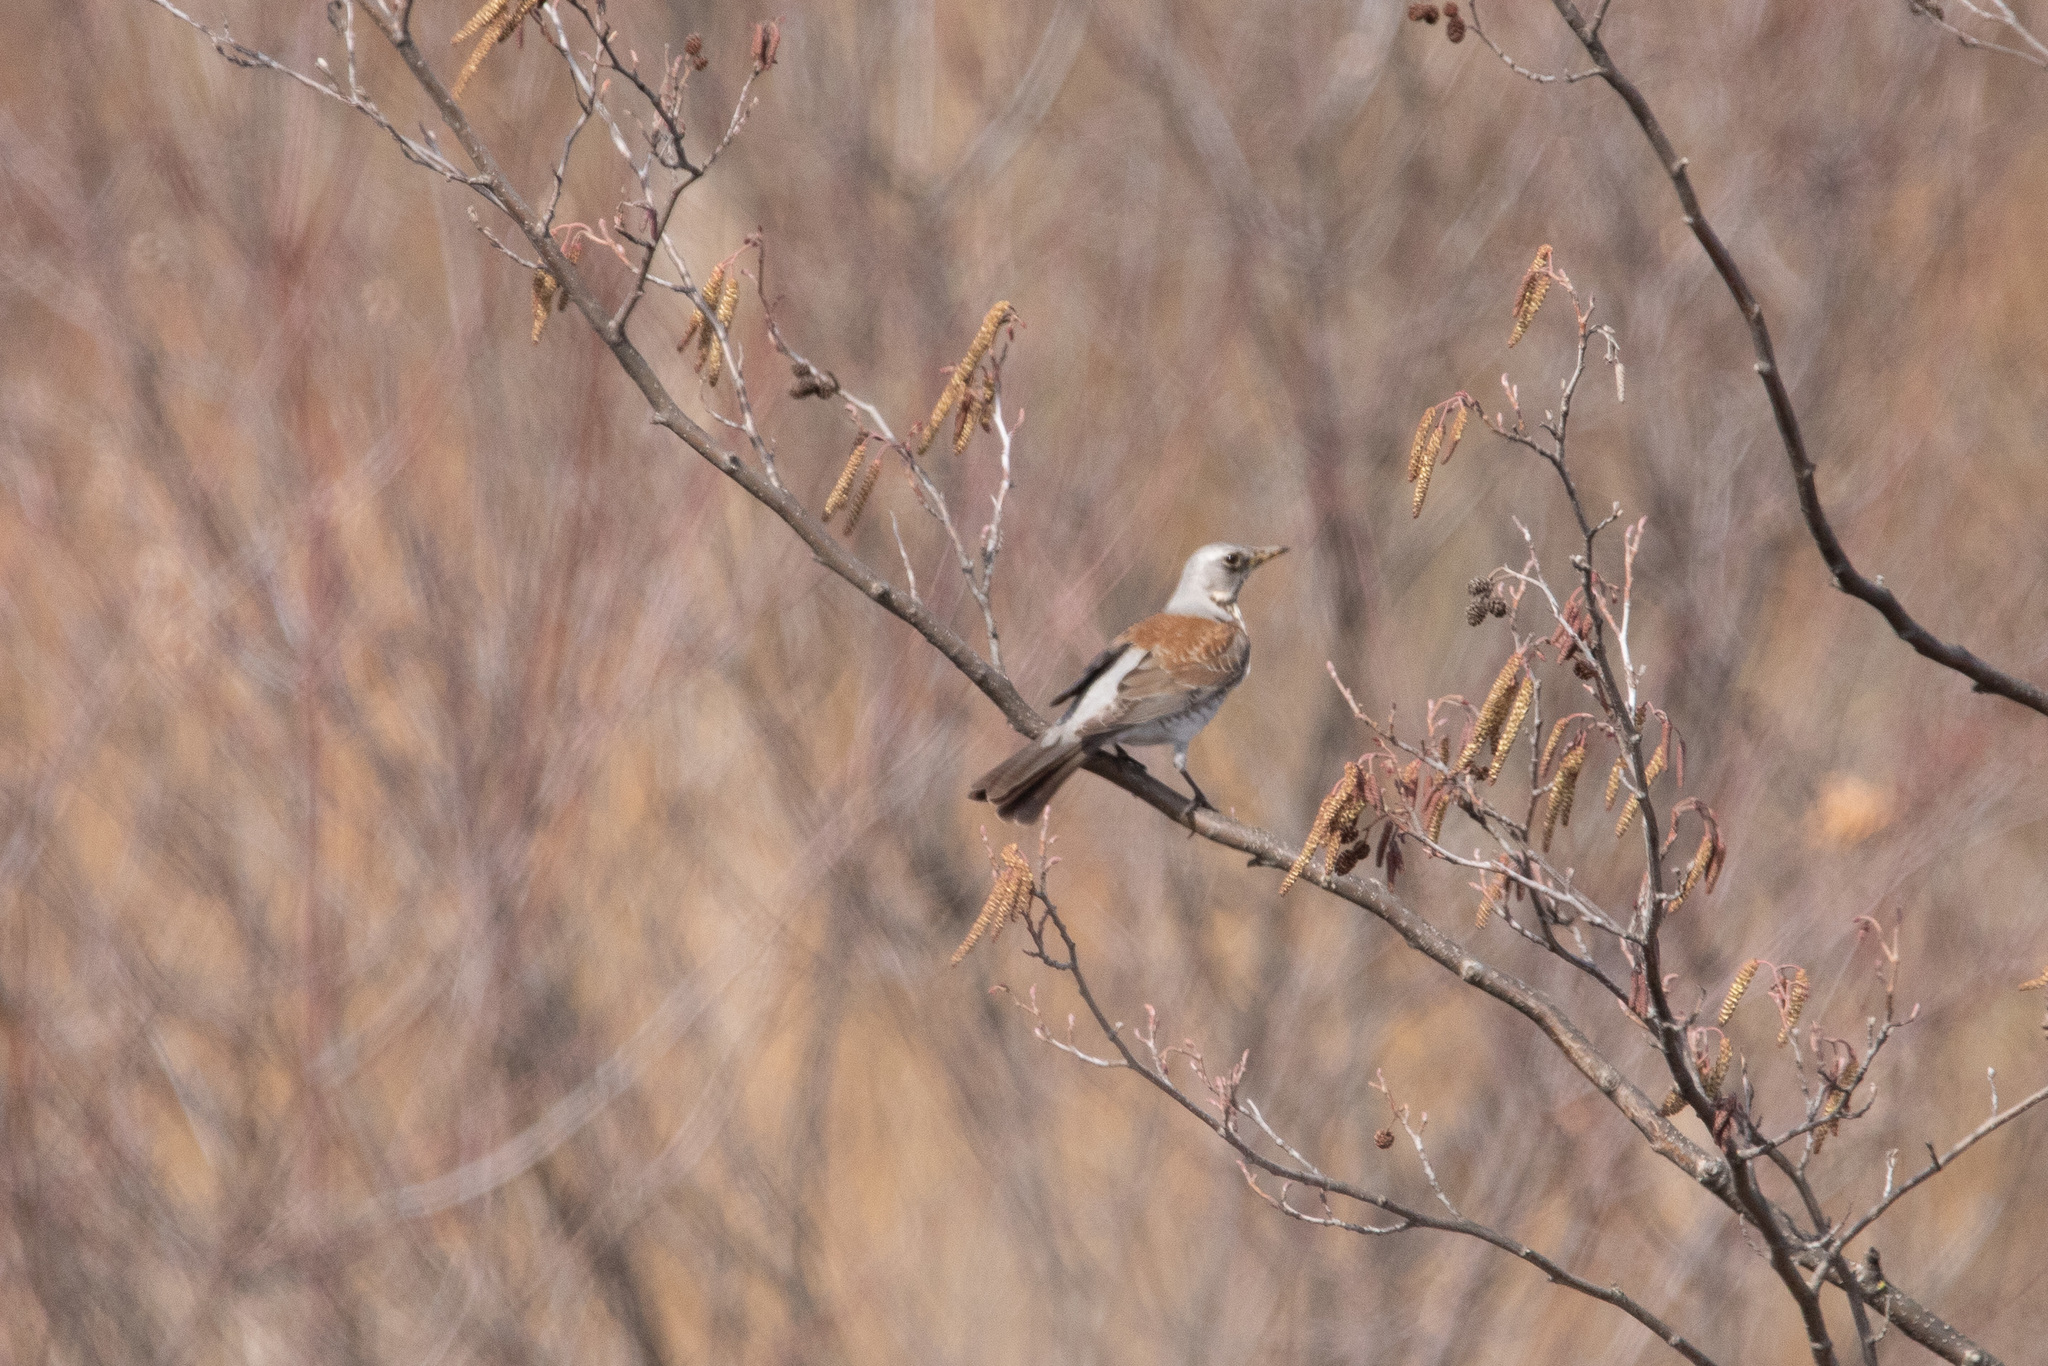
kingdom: Animalia
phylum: Chordata
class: Aves
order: Passeriformes
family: Turdidae
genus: Turdus
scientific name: Turdus pilaris
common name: Fieldfare
